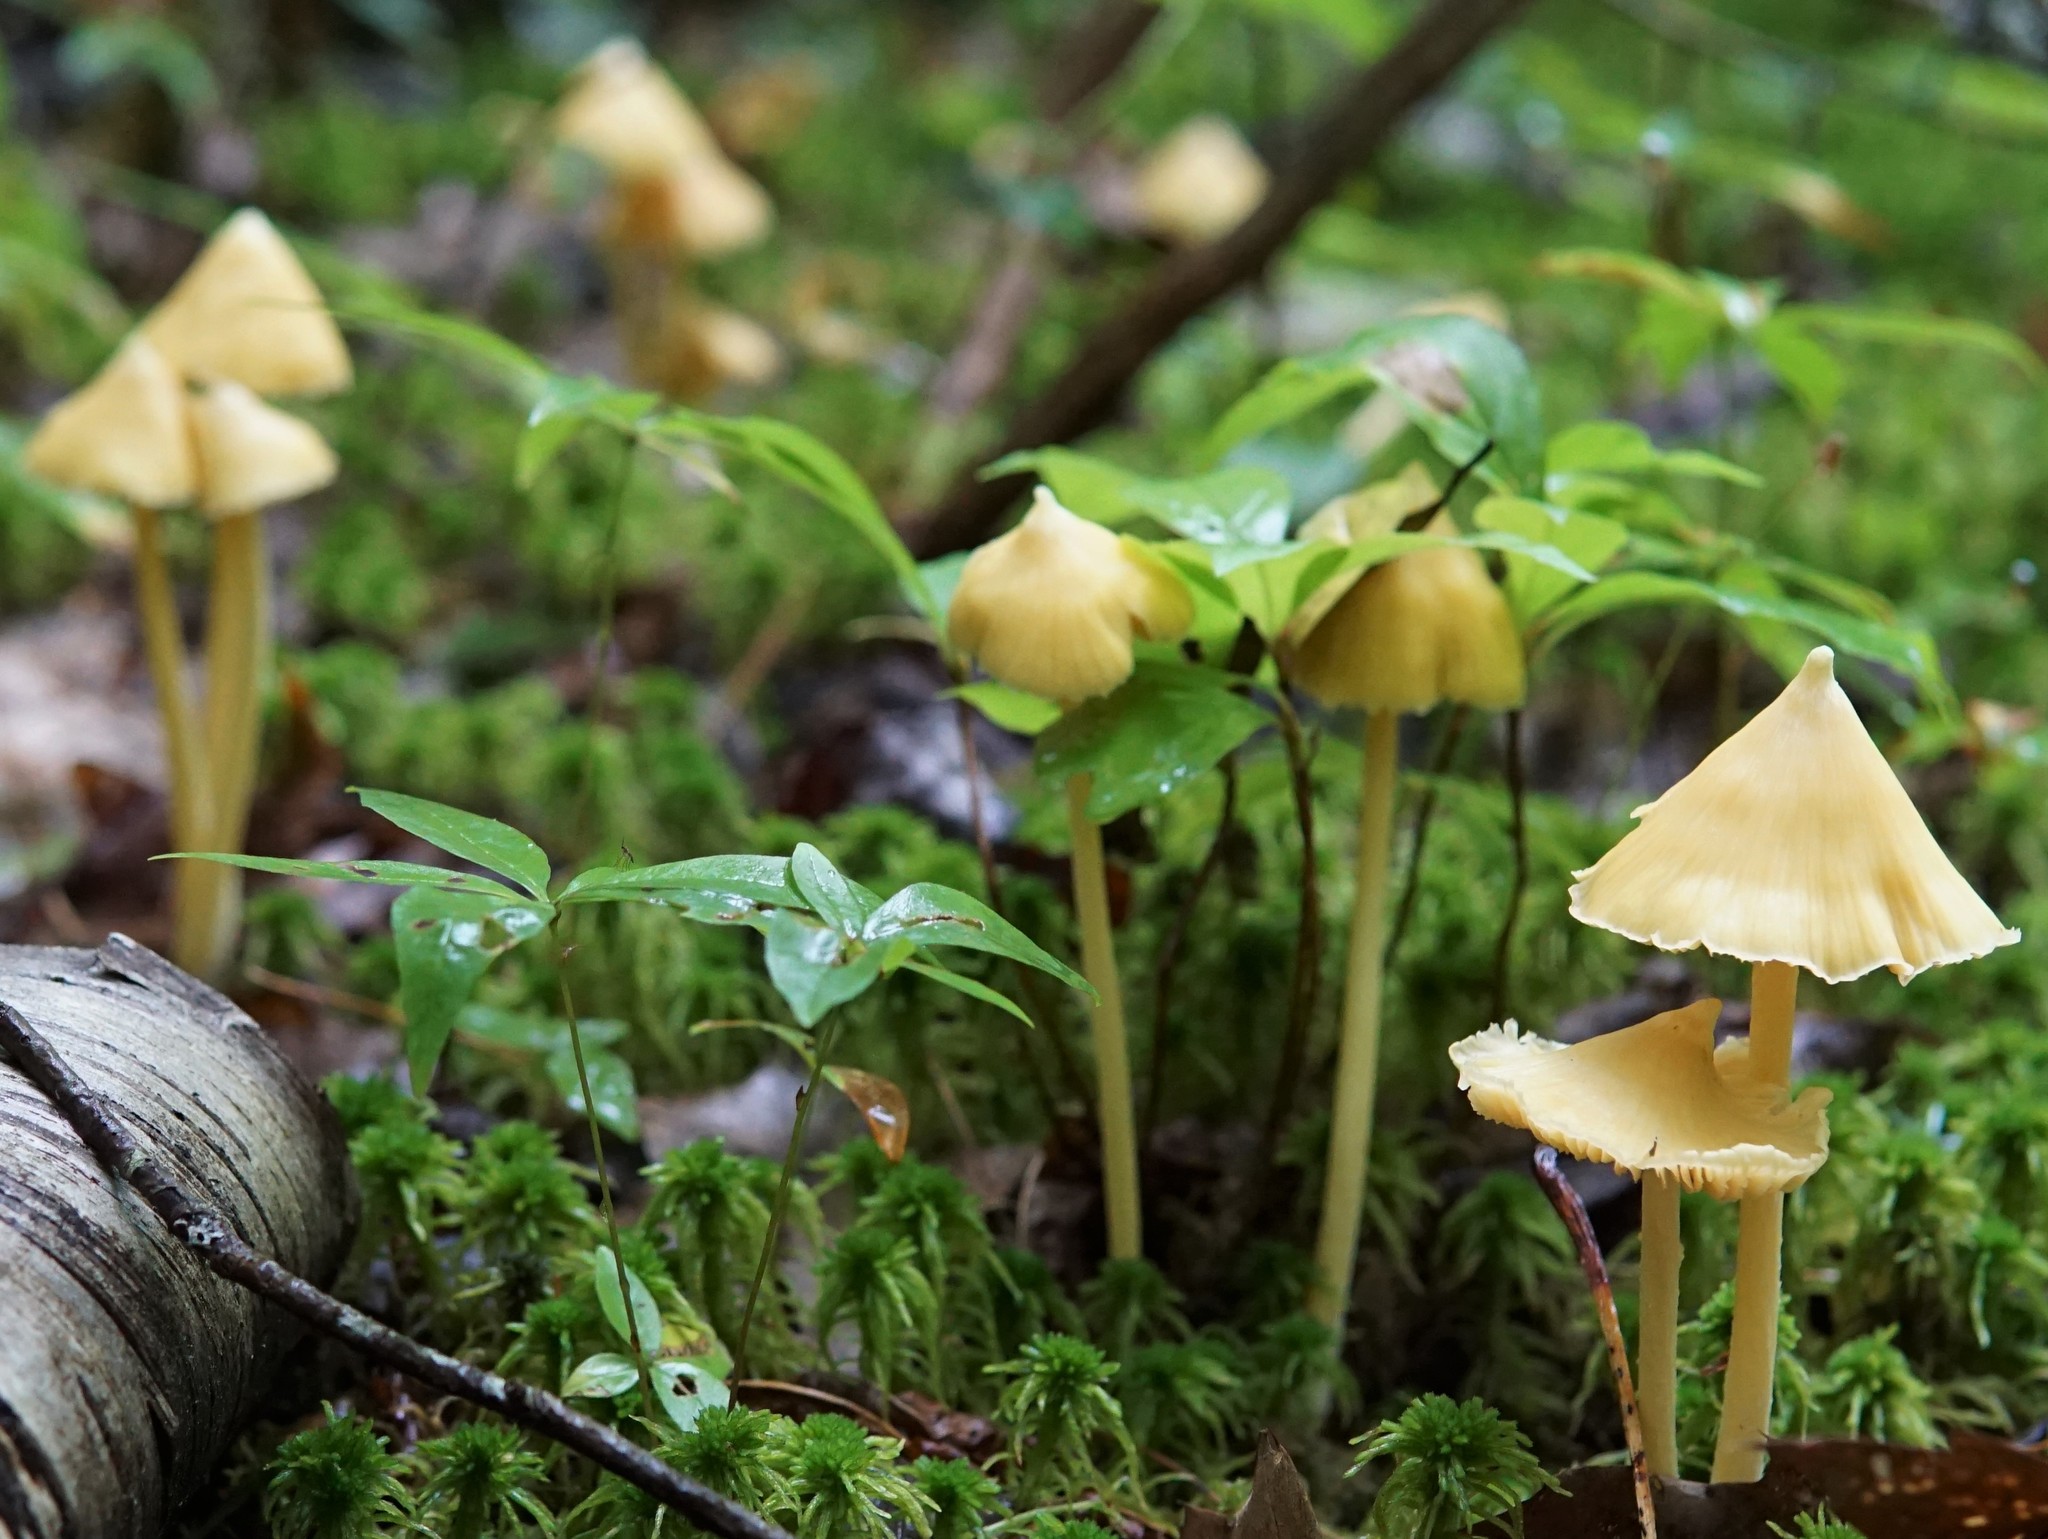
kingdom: Fungi
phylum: Basidiomycota
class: Agaricomycetes
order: Agaricales
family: Entolomataceae
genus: Entoloma
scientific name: Entoloma murrayi
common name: Yellow unicorn entoloma
